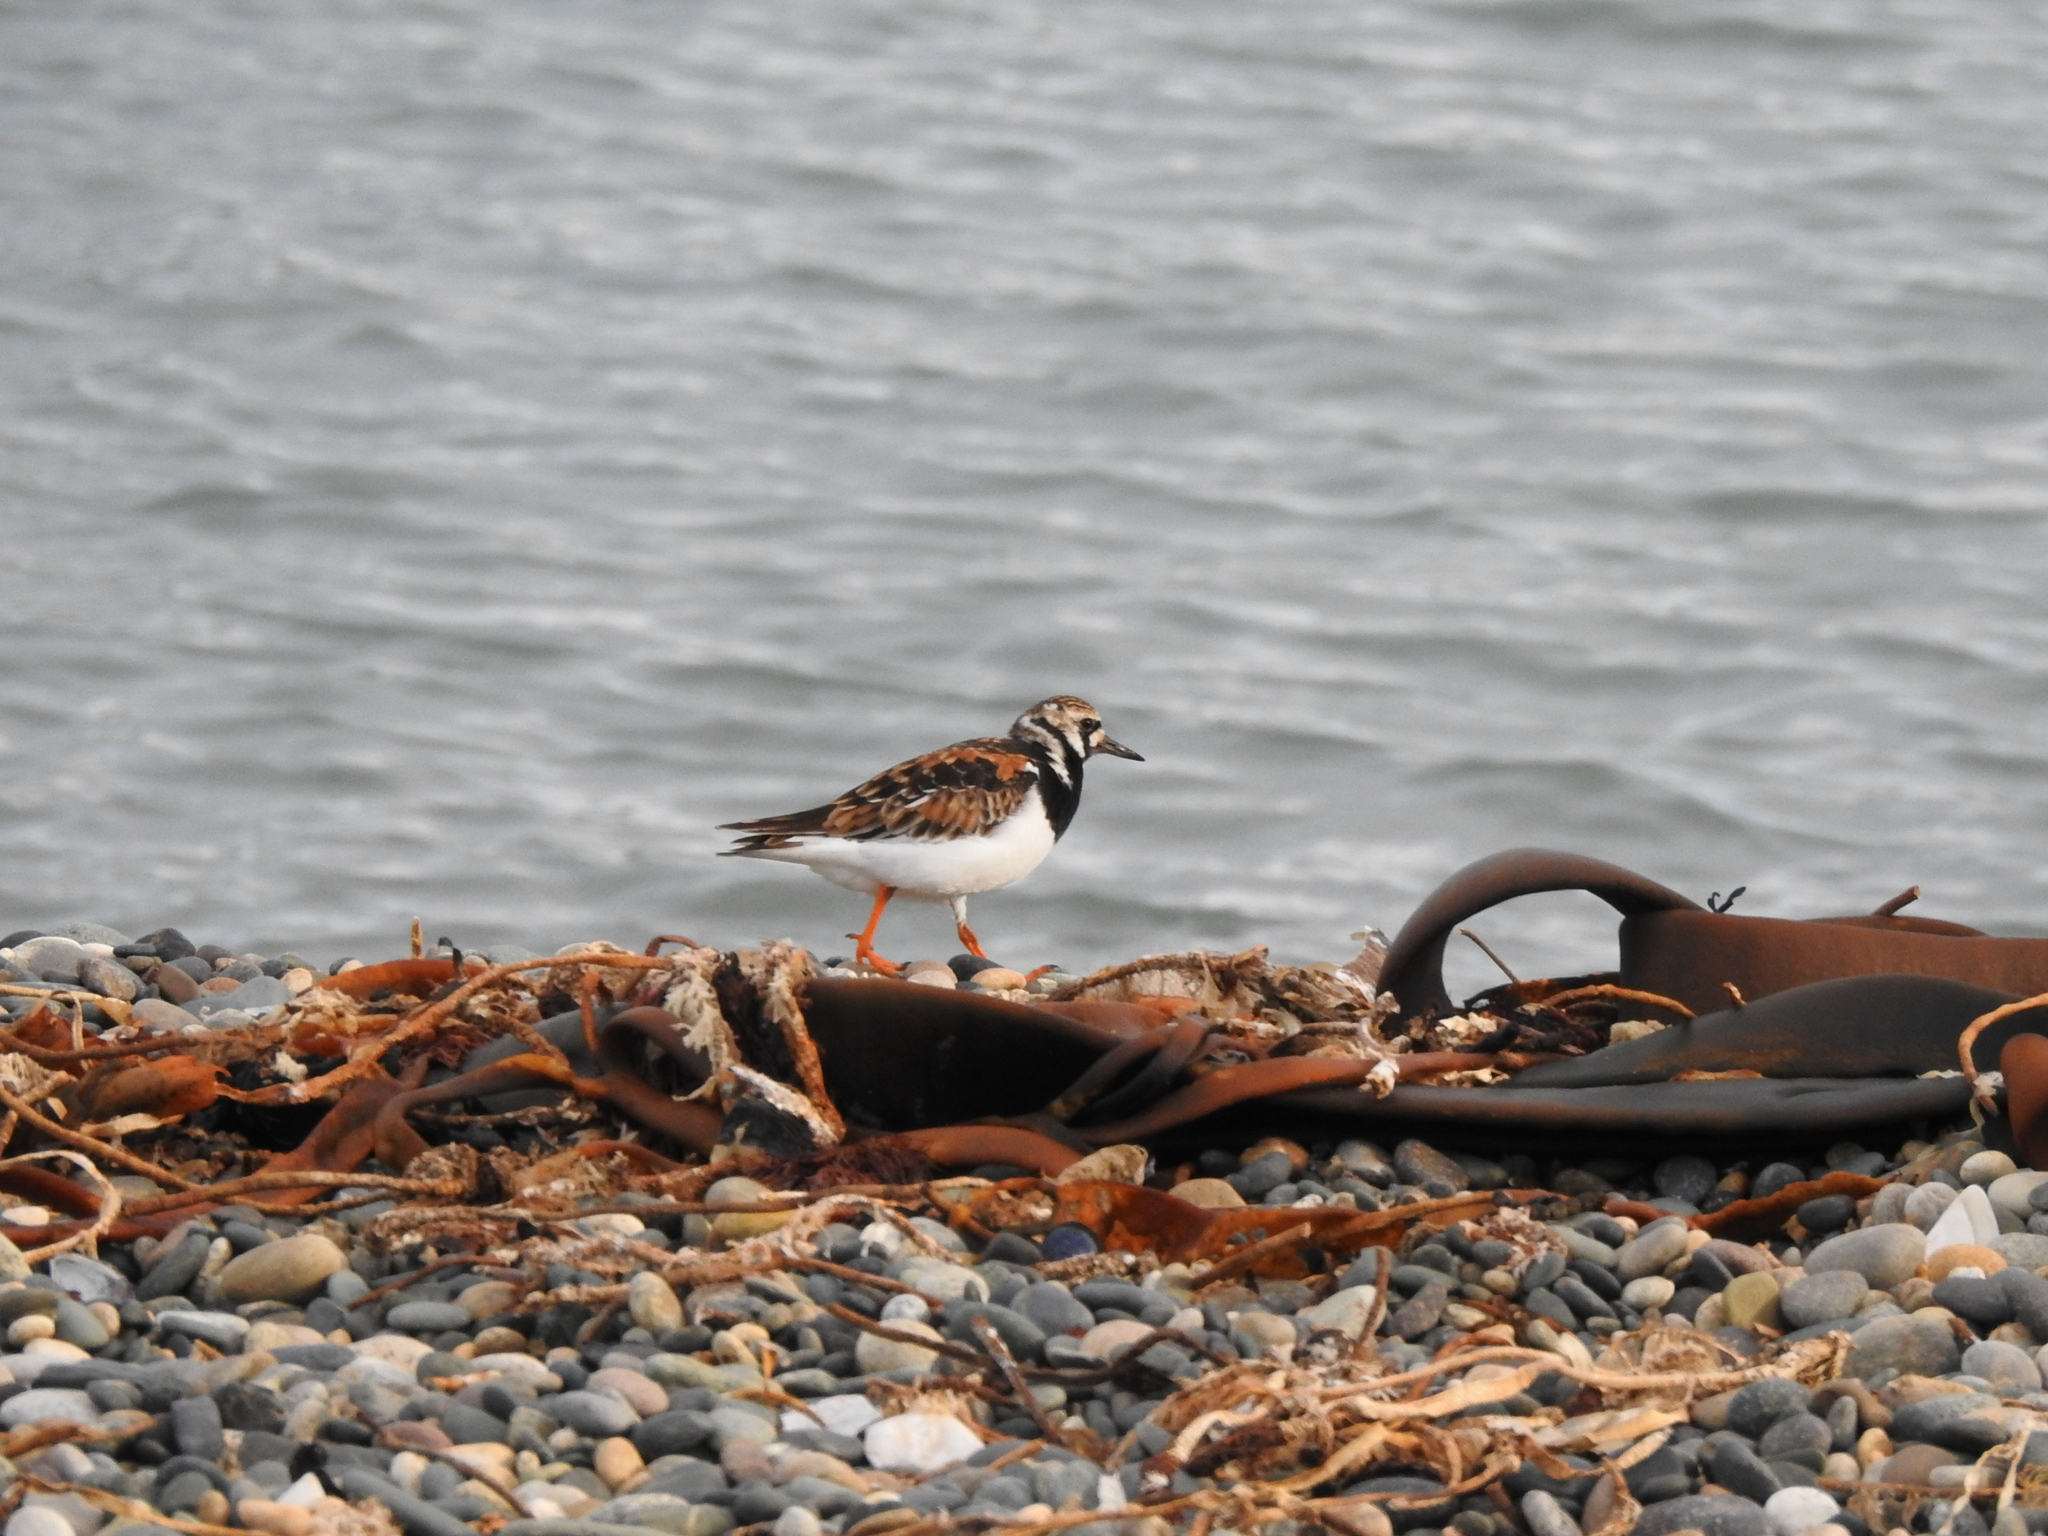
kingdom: Animalia
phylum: Chordata
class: Aves
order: Charadriiformes
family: Scolopacidae
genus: Arenaria
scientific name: Arenaria interpres
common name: Ruddy turnstone
